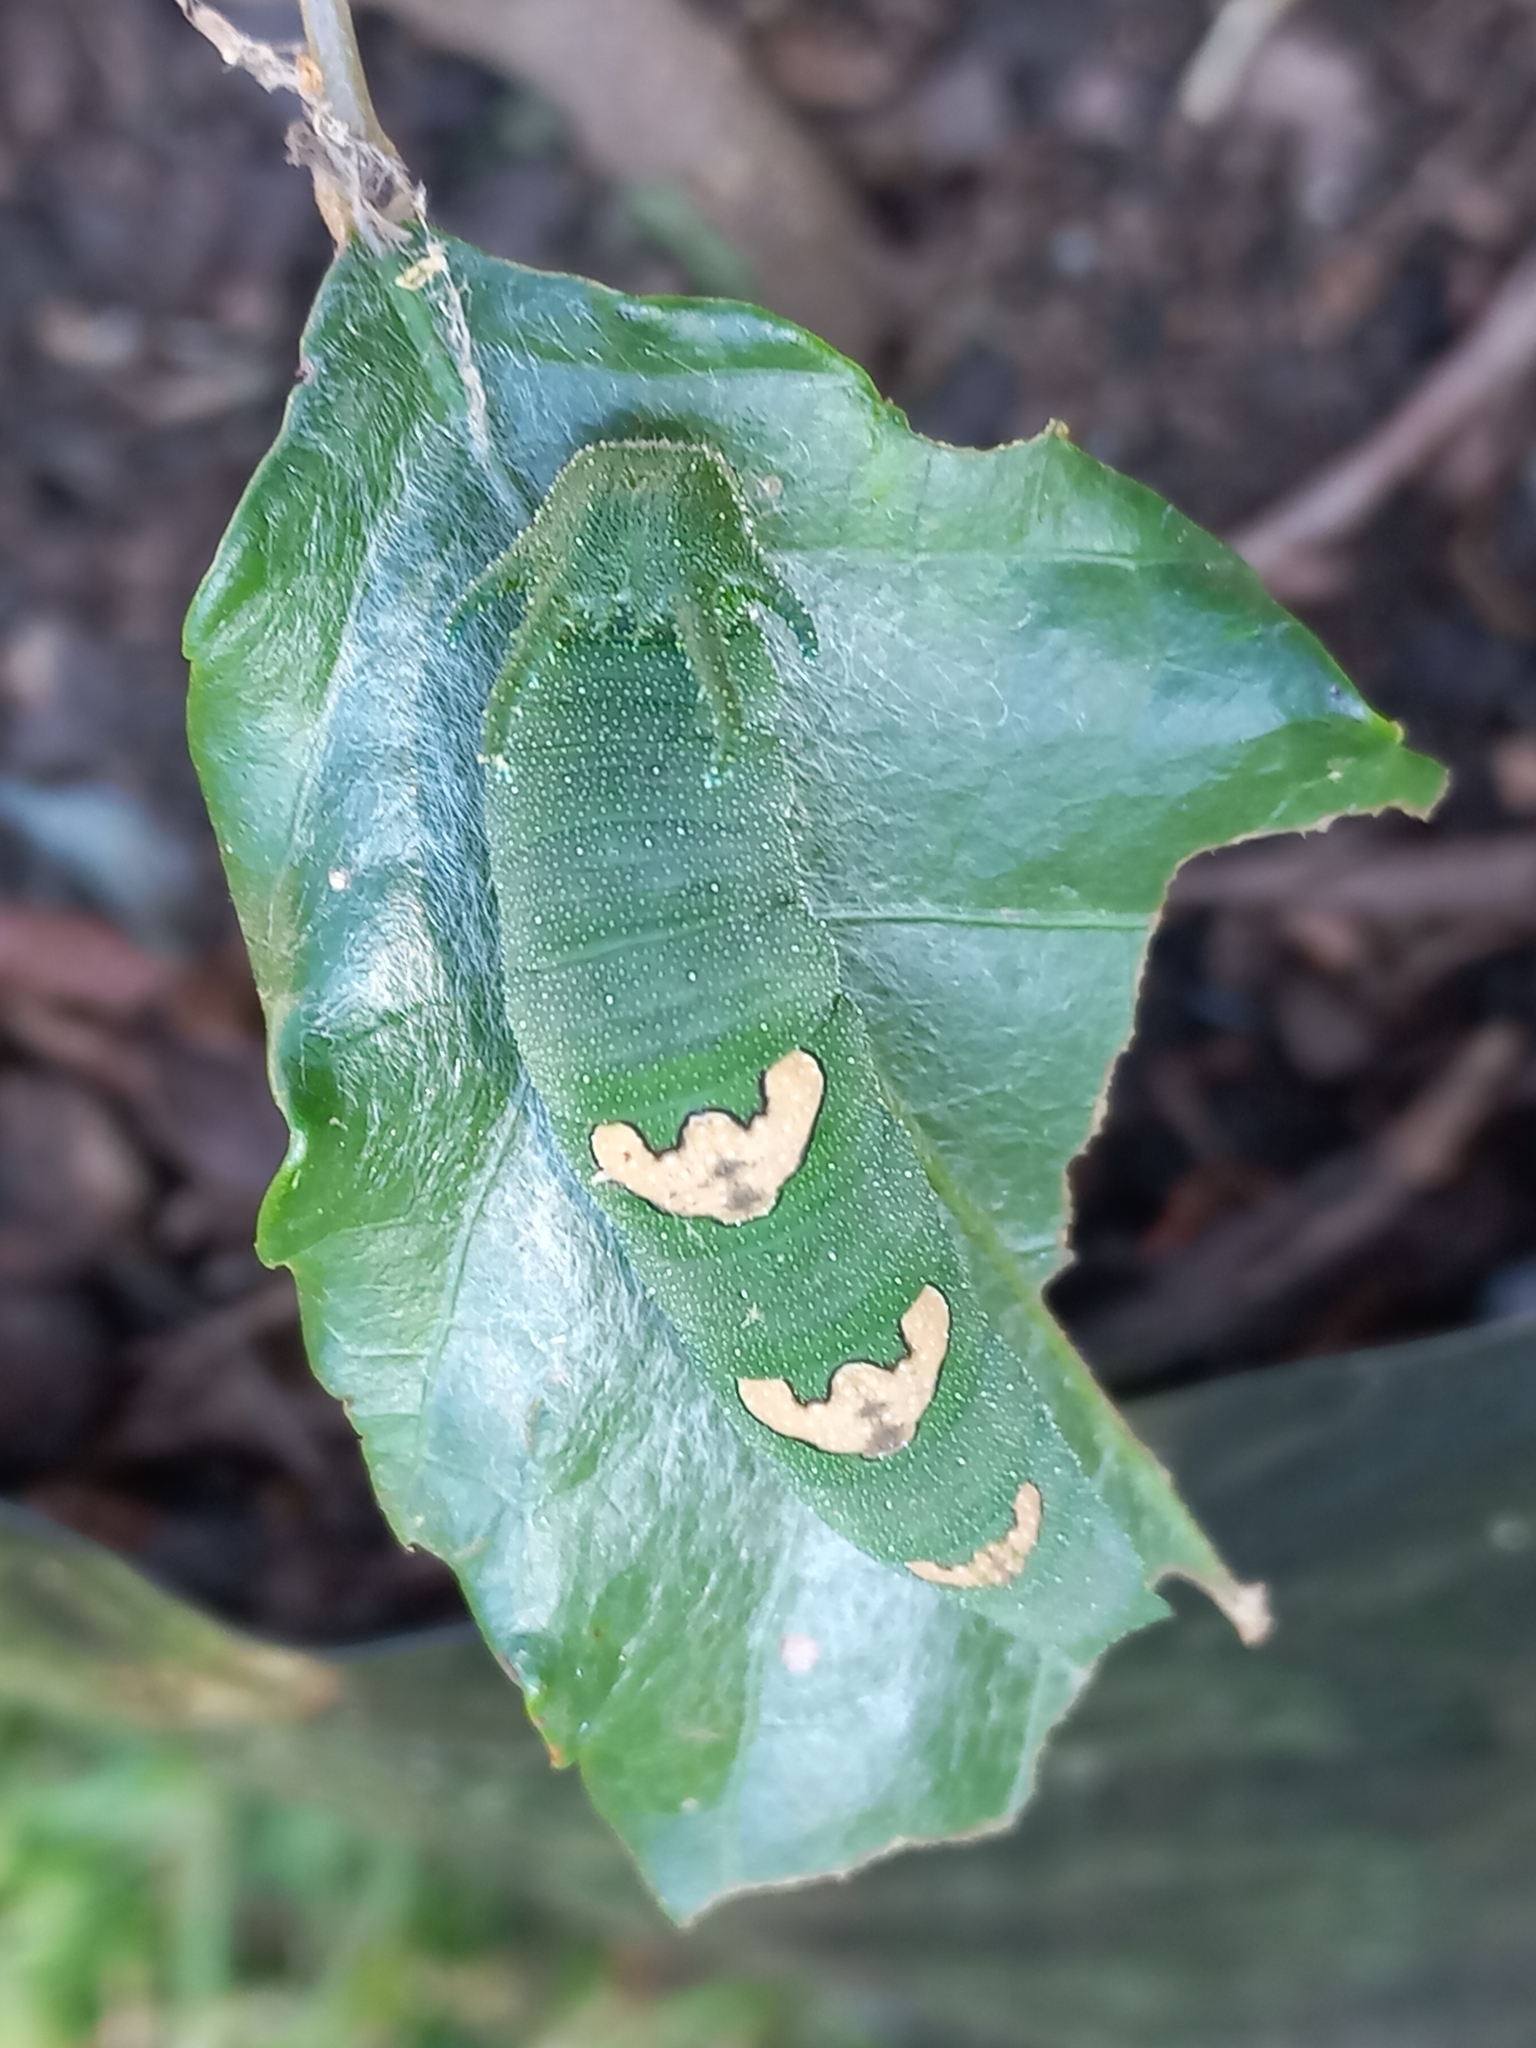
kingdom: Animalia
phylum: Arthropoda
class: Insecta
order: Lepidoptera
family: Nymphalidae
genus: Charaxes
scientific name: Charaxes varanes
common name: Common pearl charaxes
